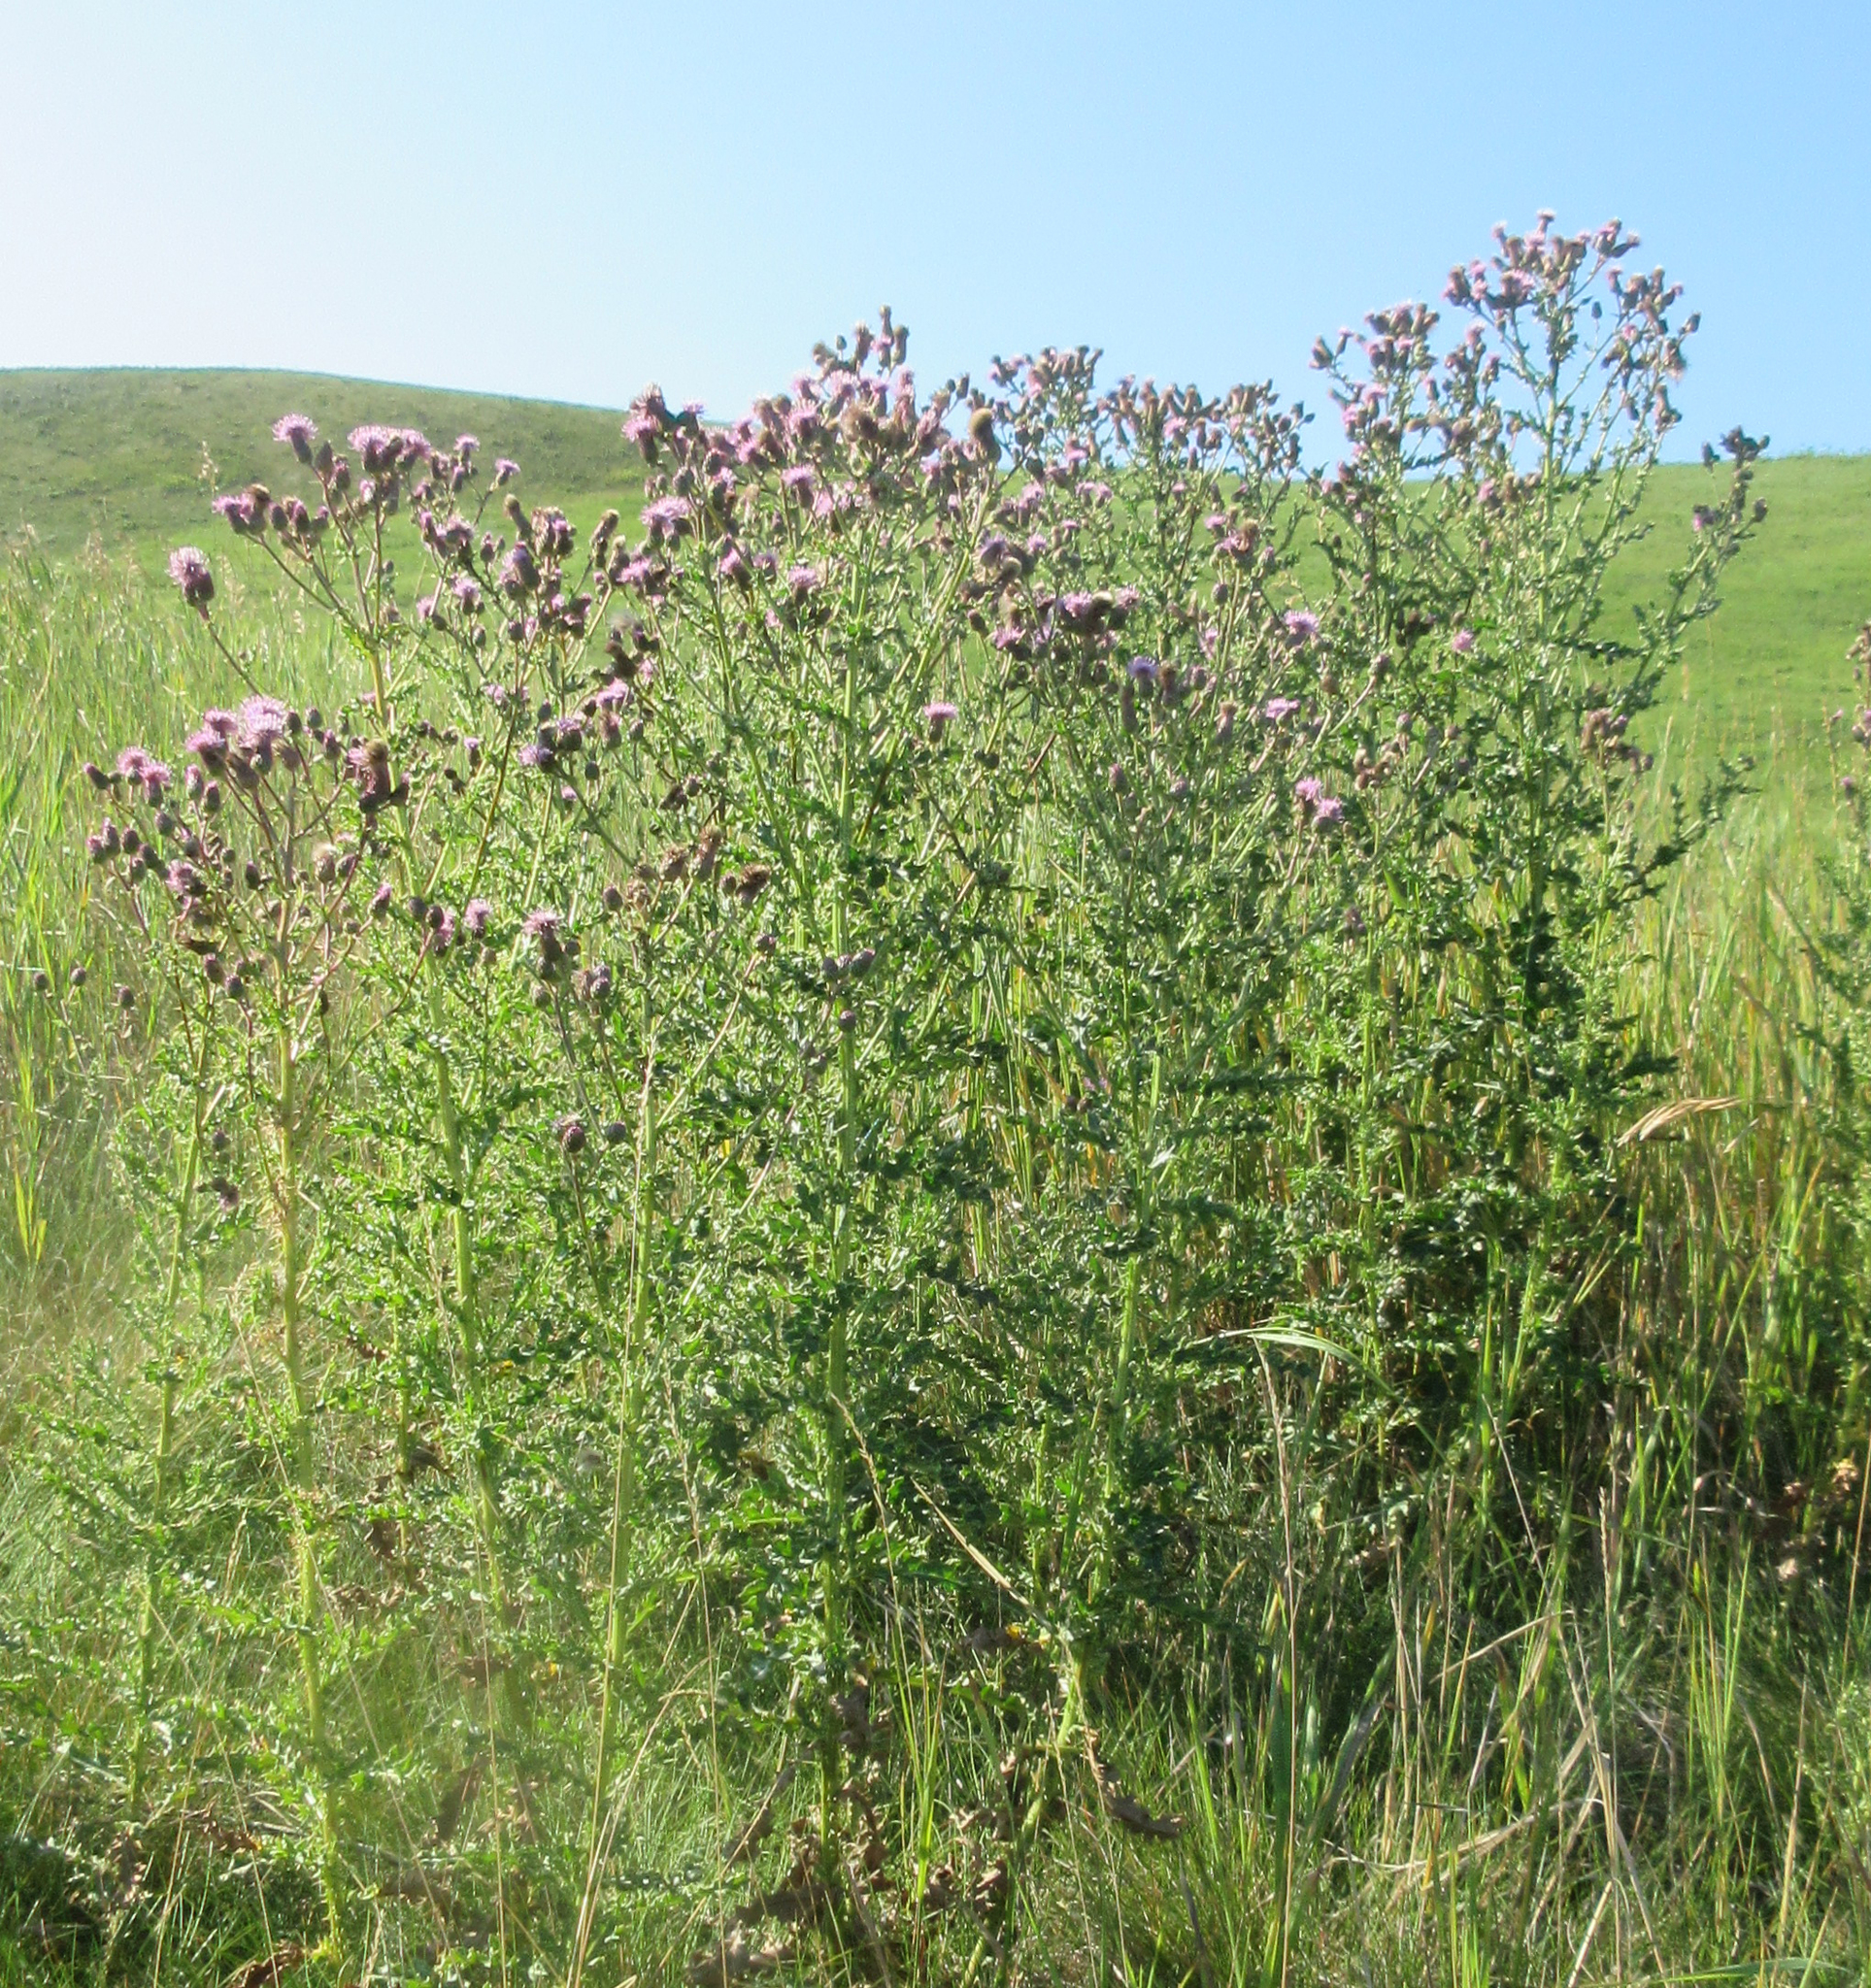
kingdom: Plantae
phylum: Tracheophyta
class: Magnoliopsida
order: Asterales
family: Asteraceae
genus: Cirsium
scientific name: Cirsium arvense
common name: Creeping thistle
